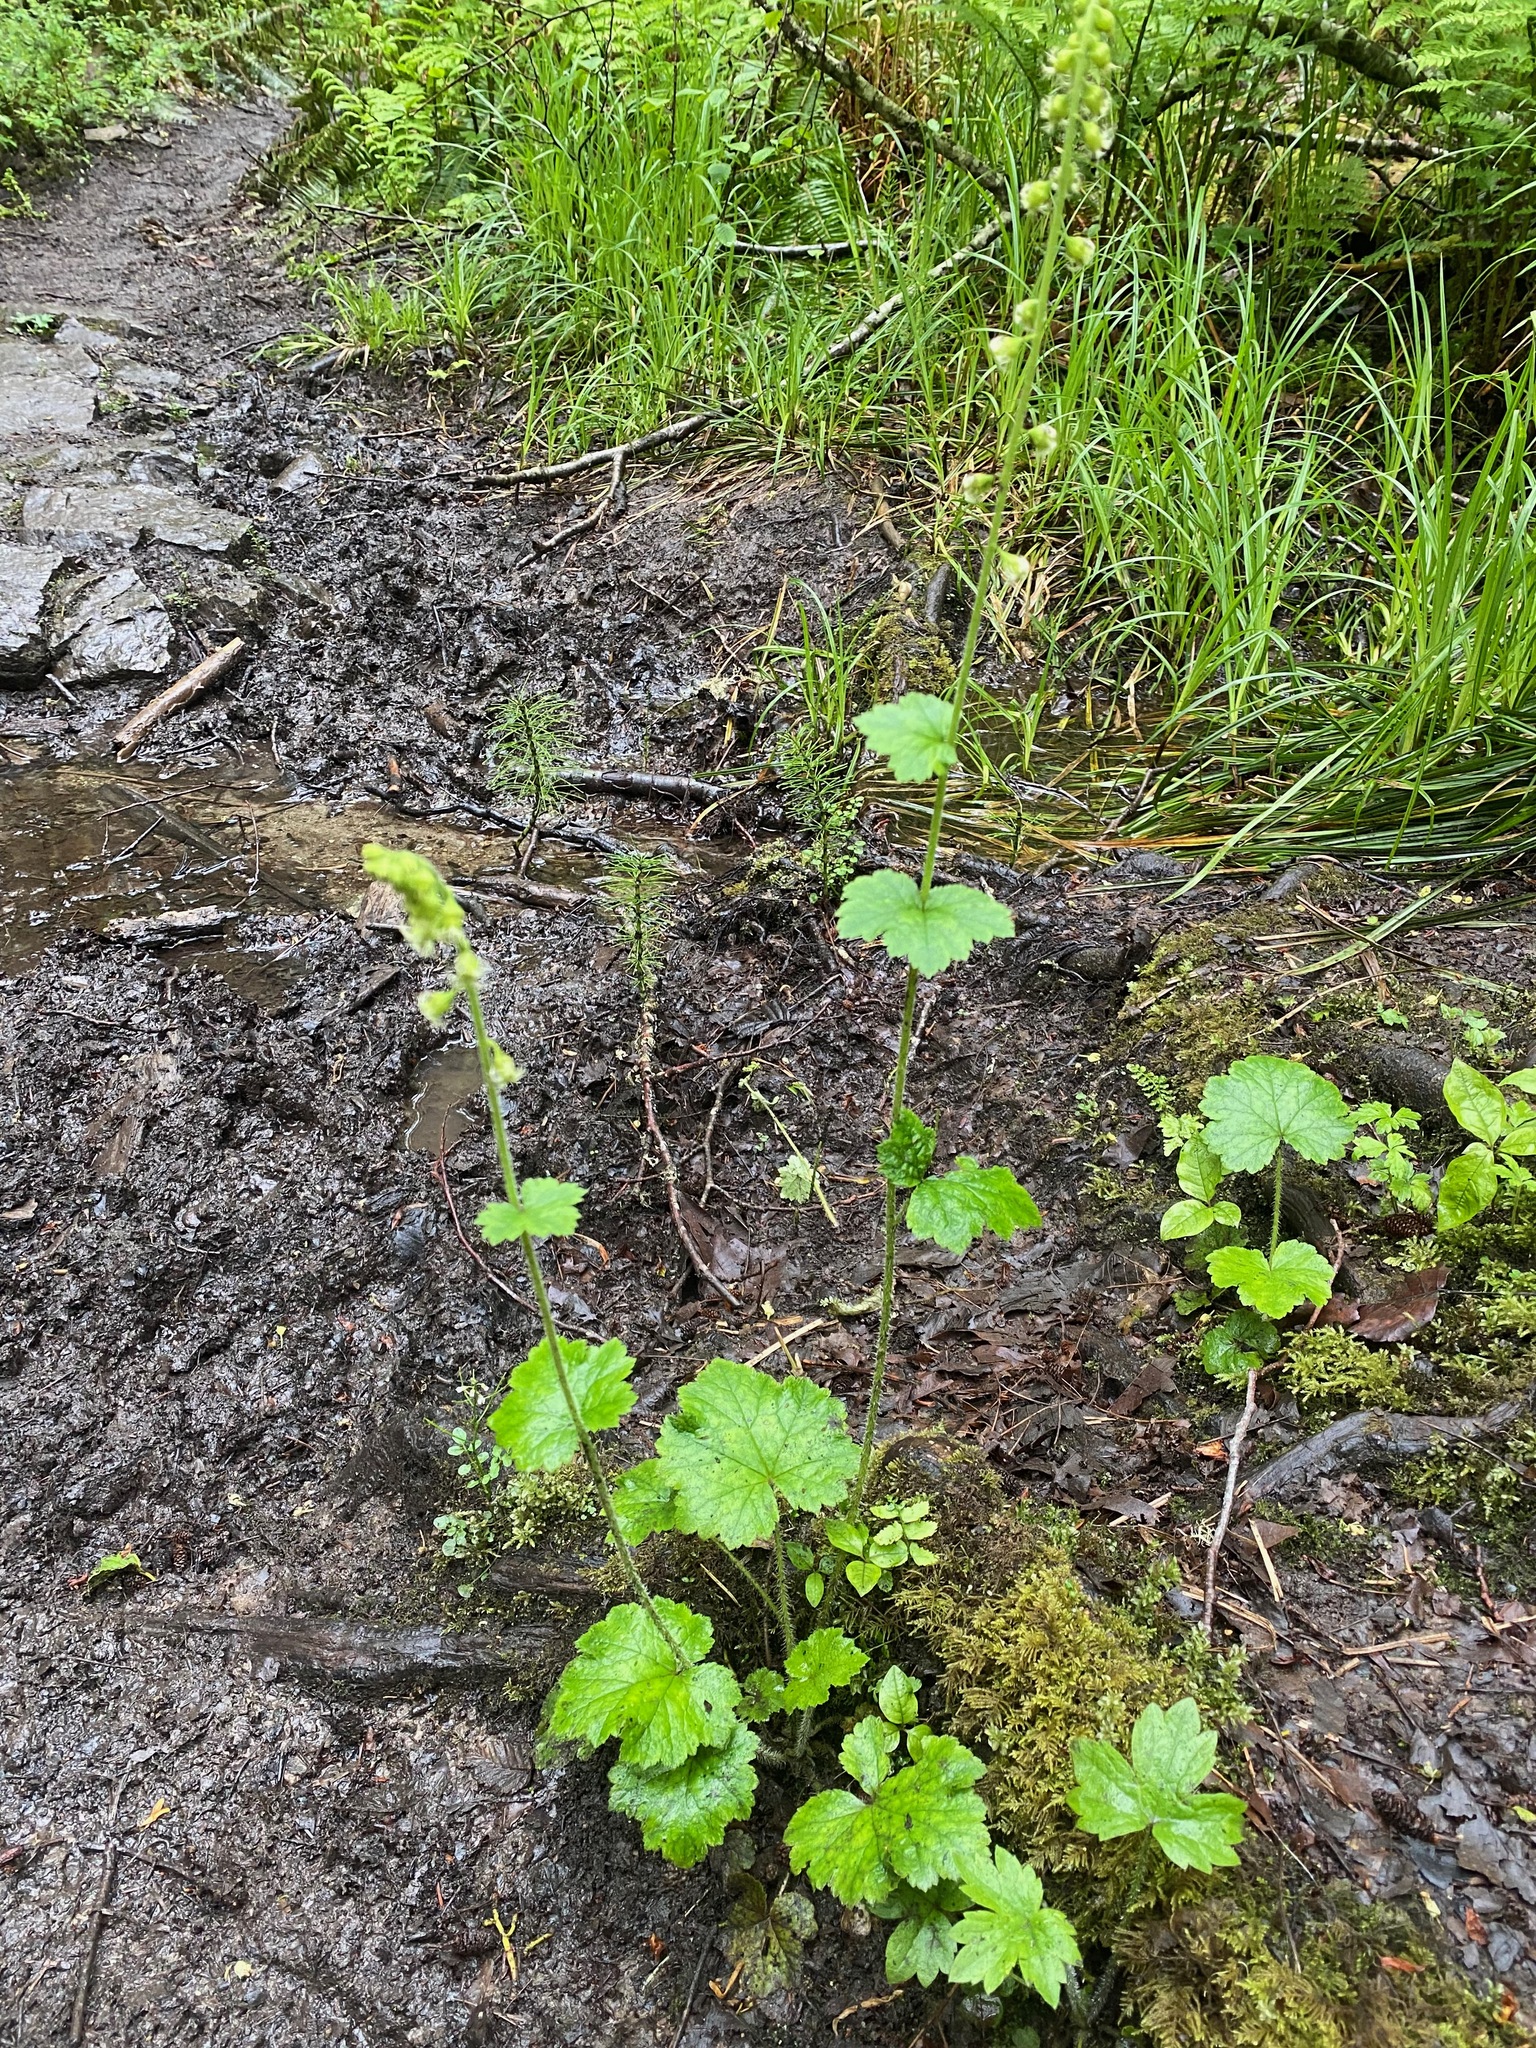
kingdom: Plantae
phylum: Tracheophyta
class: Magnoliopsida
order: Saxifragales
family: Saxifragaceae
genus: Tellima
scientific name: Tellima grandiflora
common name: Fringecups
